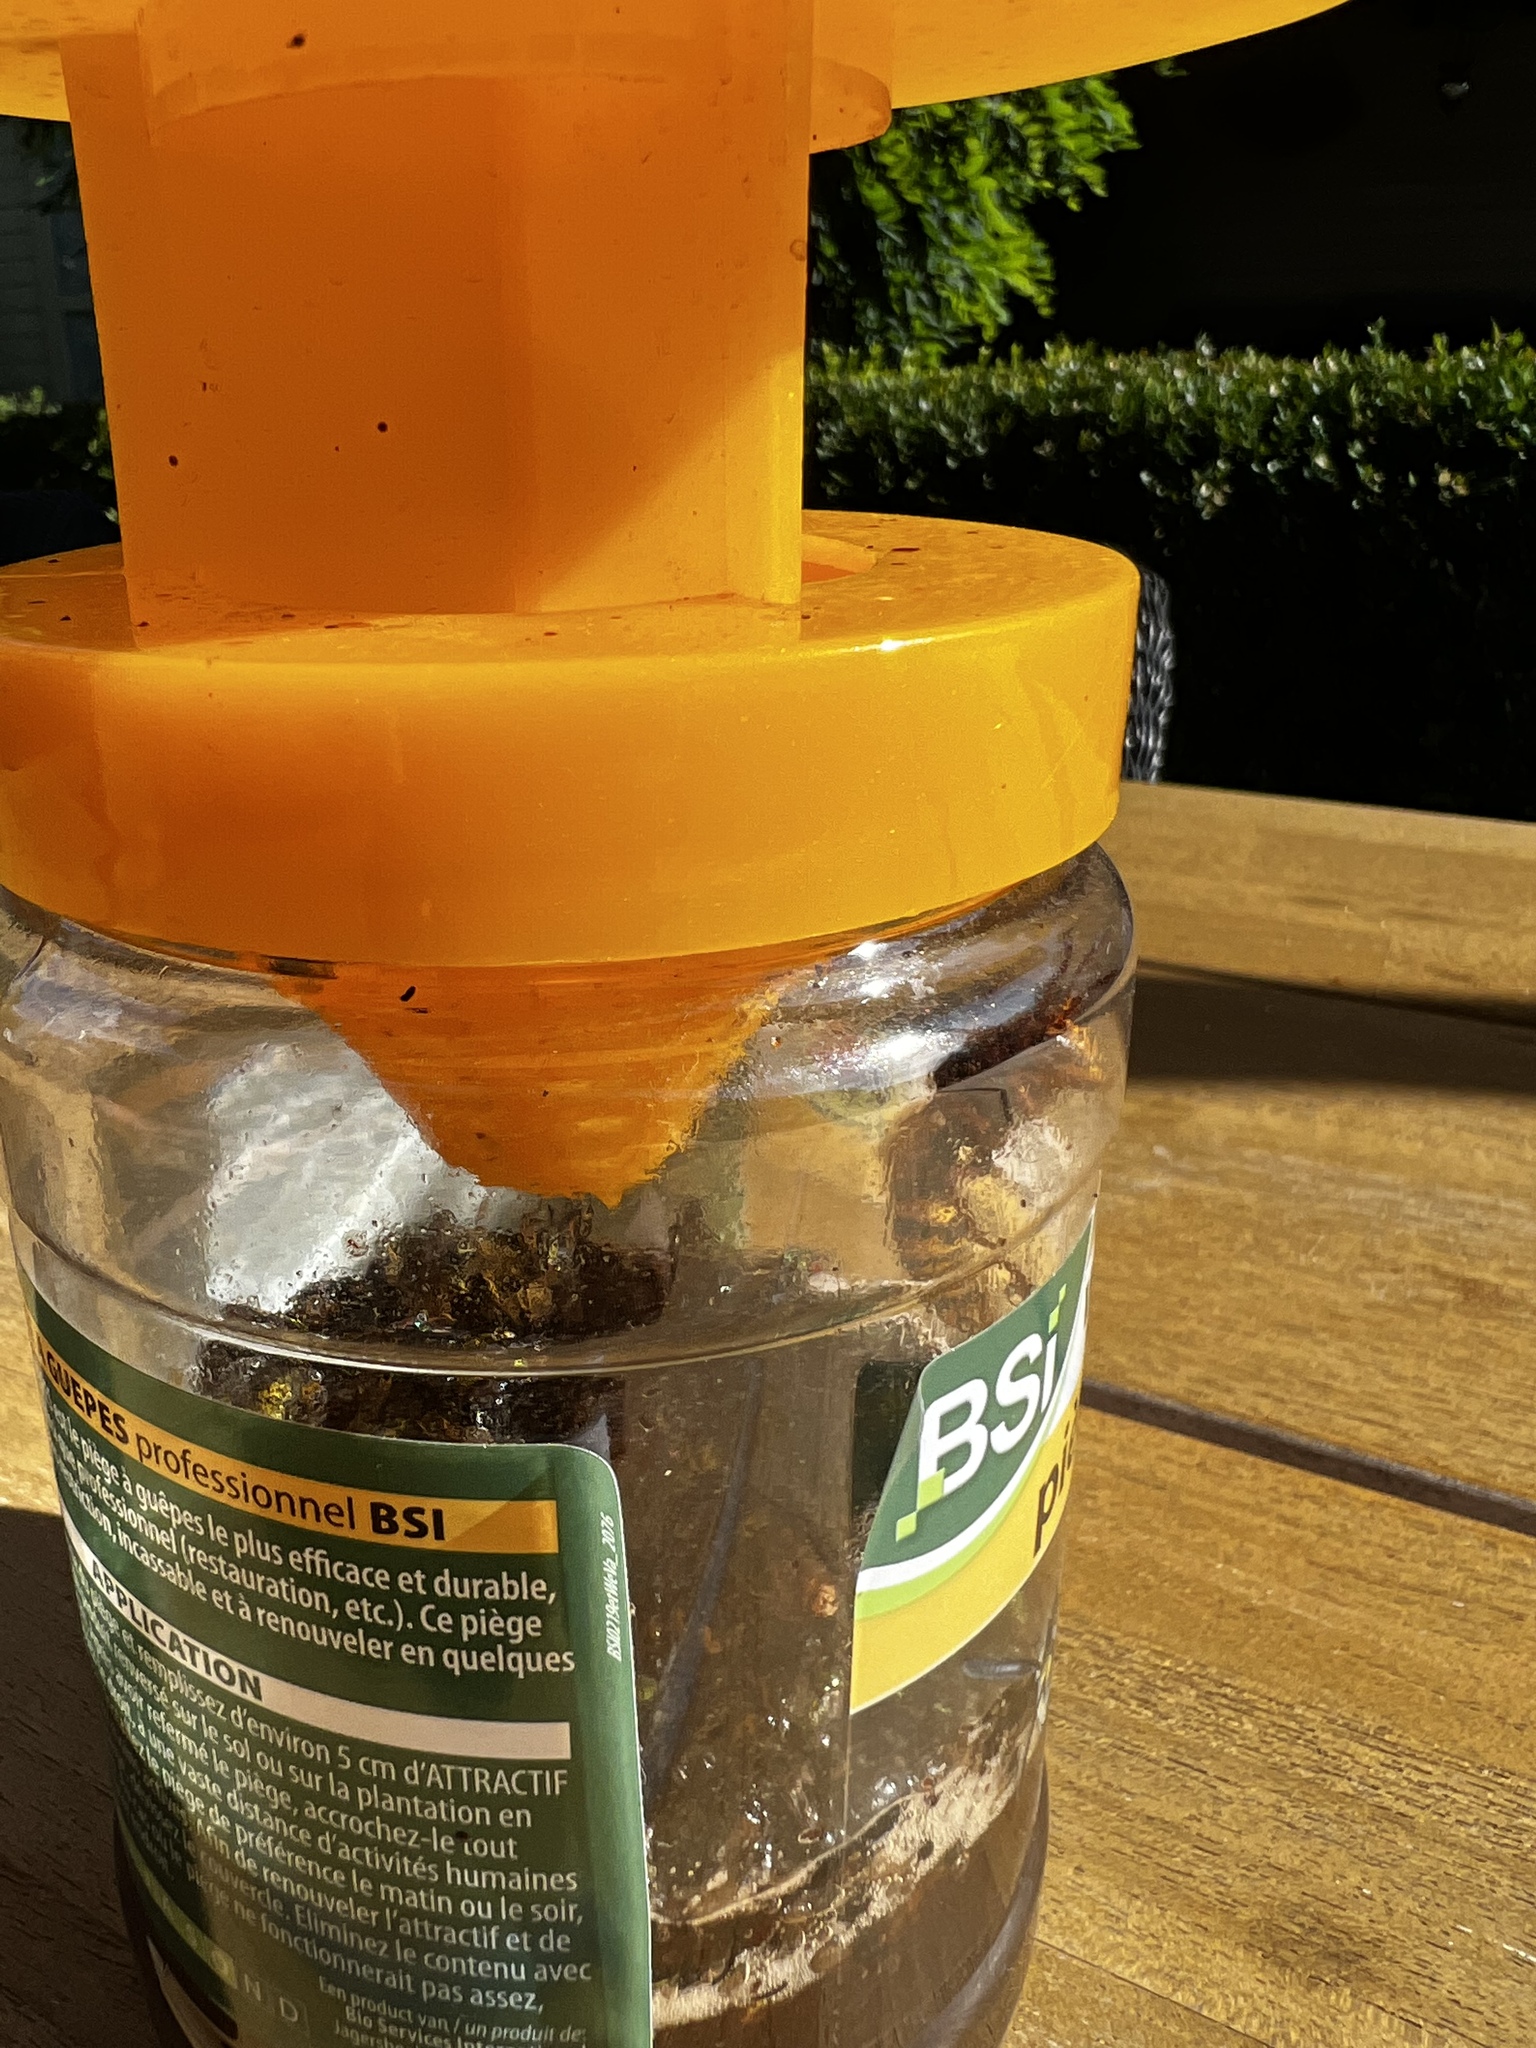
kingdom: Animalia
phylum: Arthropoda
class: Insecta
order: Hymenoptera
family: Vespidae
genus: Vespa
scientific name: Vespa crabro
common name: Hornet
